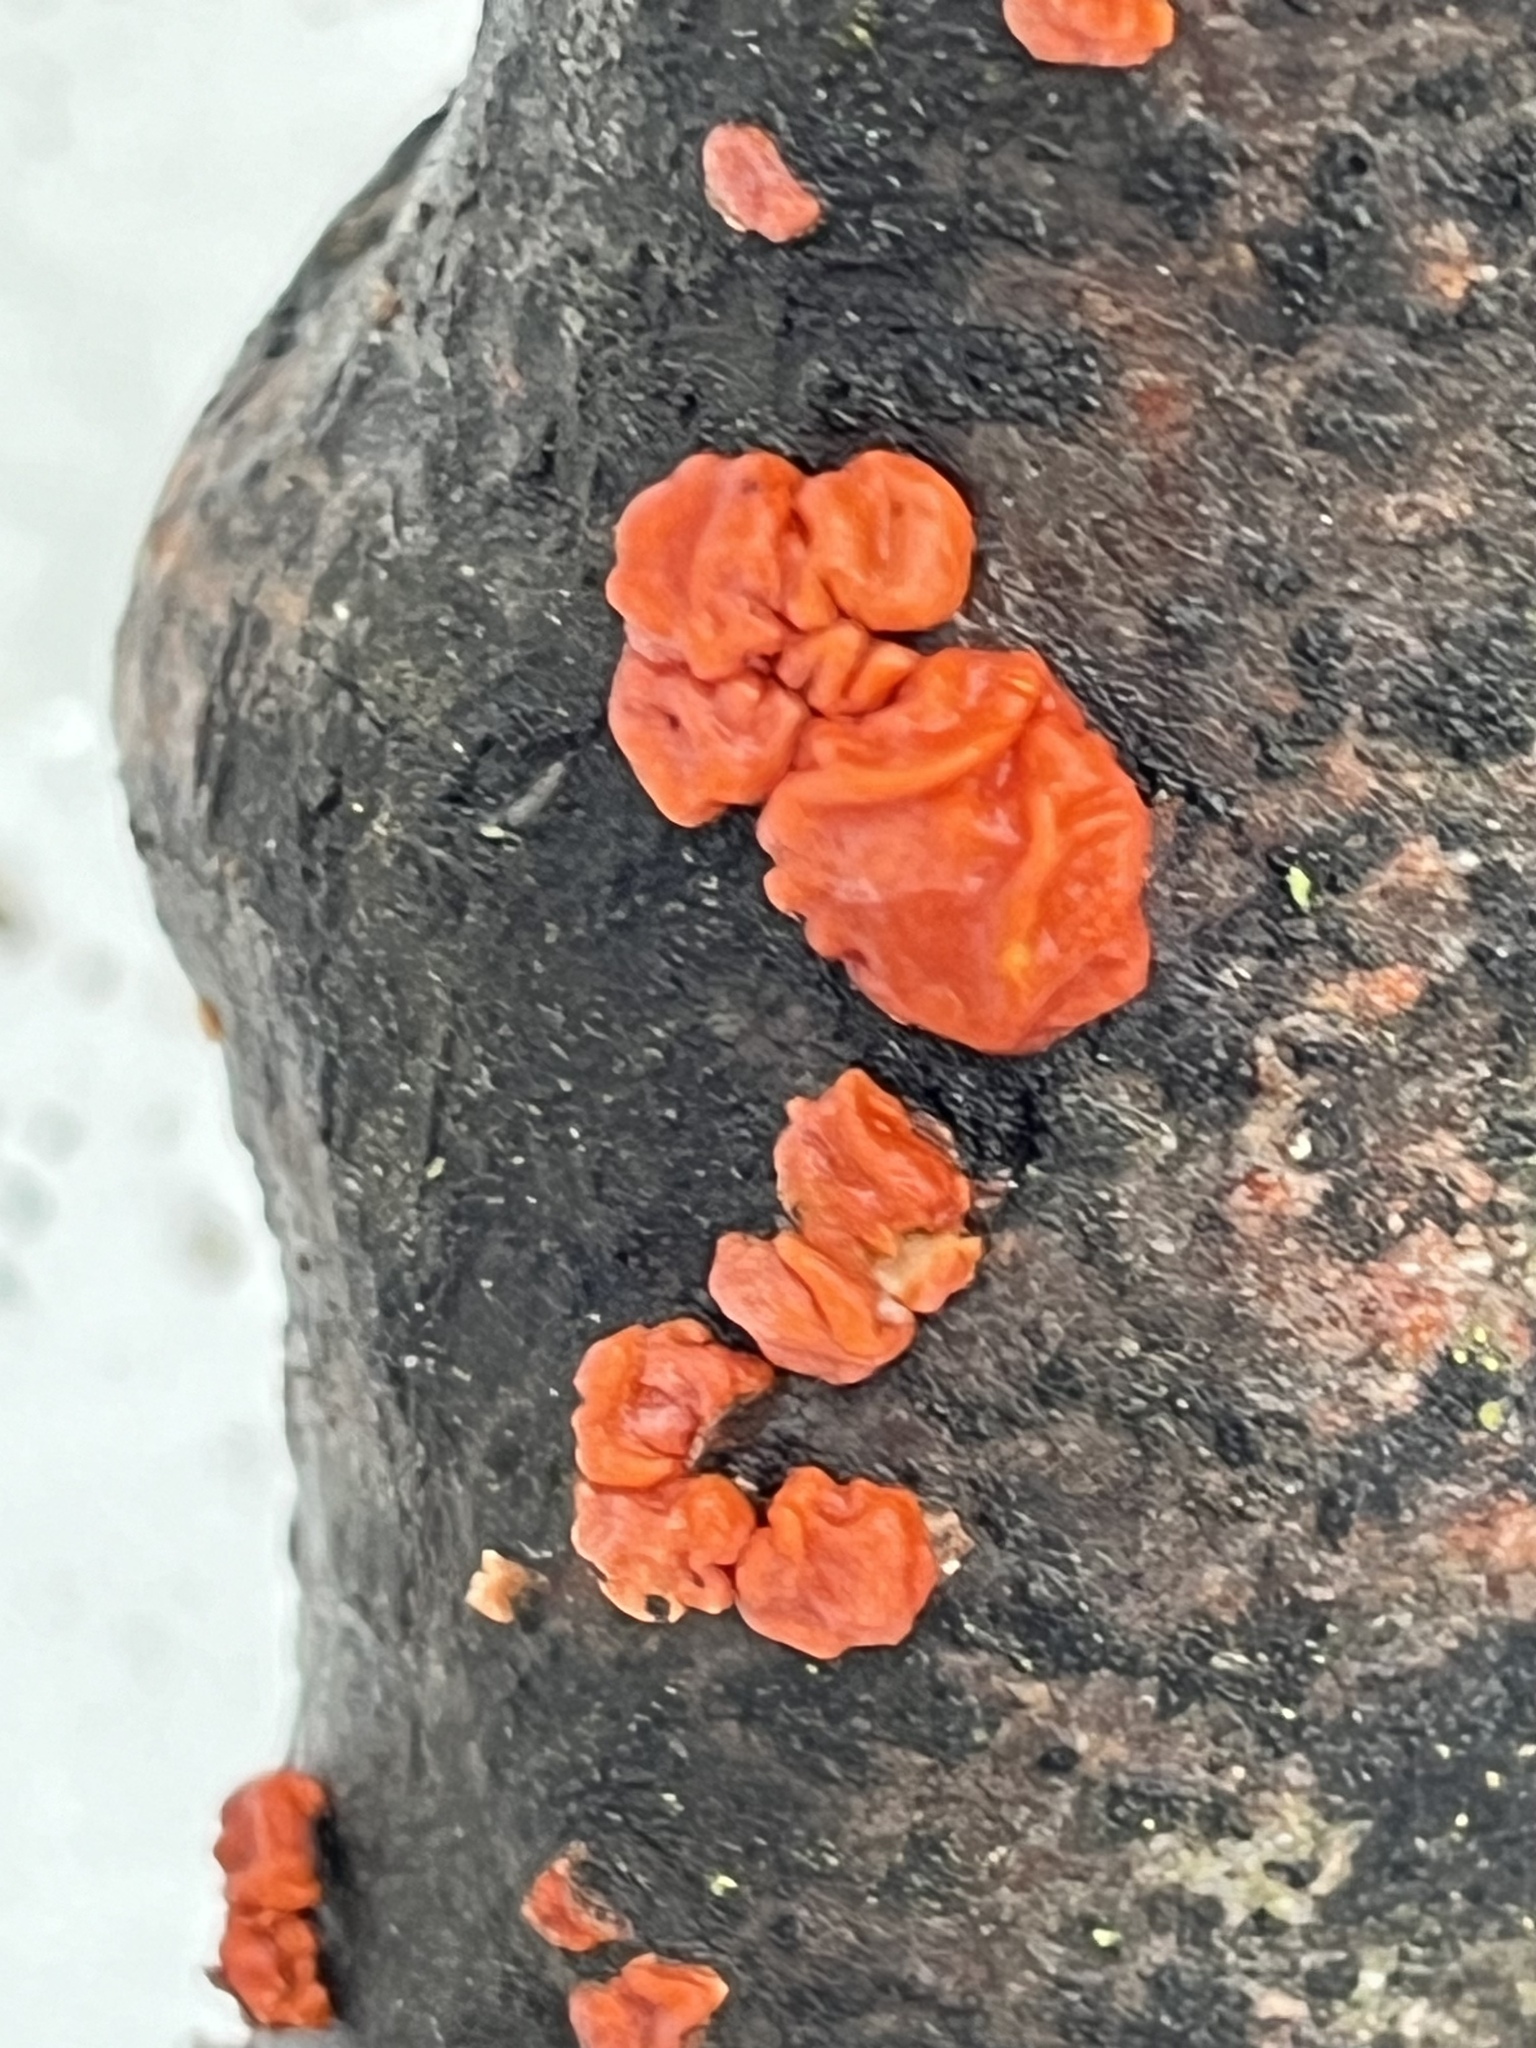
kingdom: Fungi
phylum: Basidiomycota
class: Agaricomycetes
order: Russulales
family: Peniophoraceae
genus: Peniophora
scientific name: Peniophora rufa
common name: Red tree brain fungus
